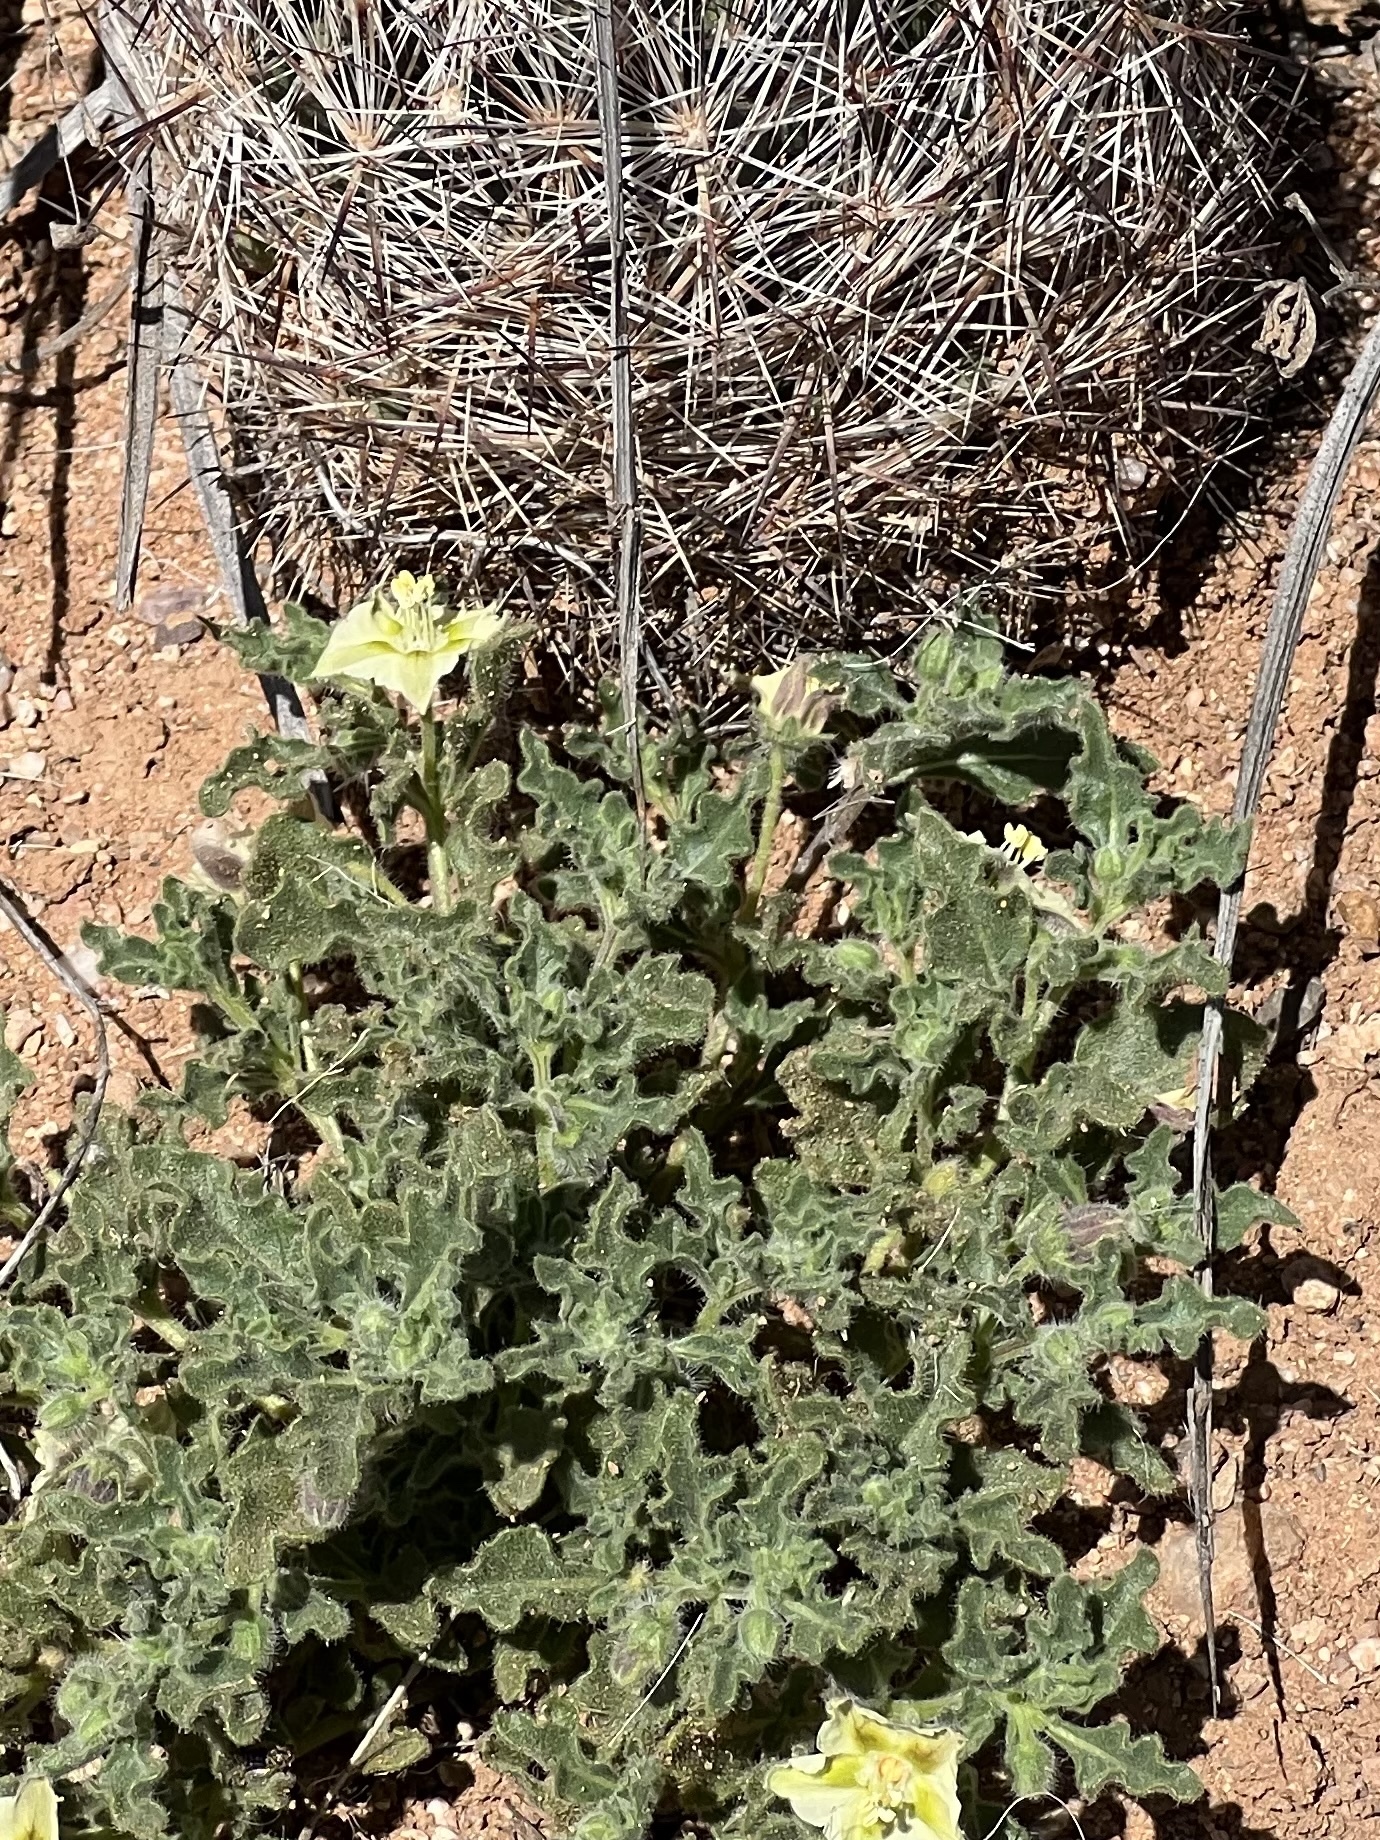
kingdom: Plantae
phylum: Tracheophyta
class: Magnoliopsida
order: Solanales
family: Solanaceae
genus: Chamaesaracha
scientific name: Chamaesaracha sordida
